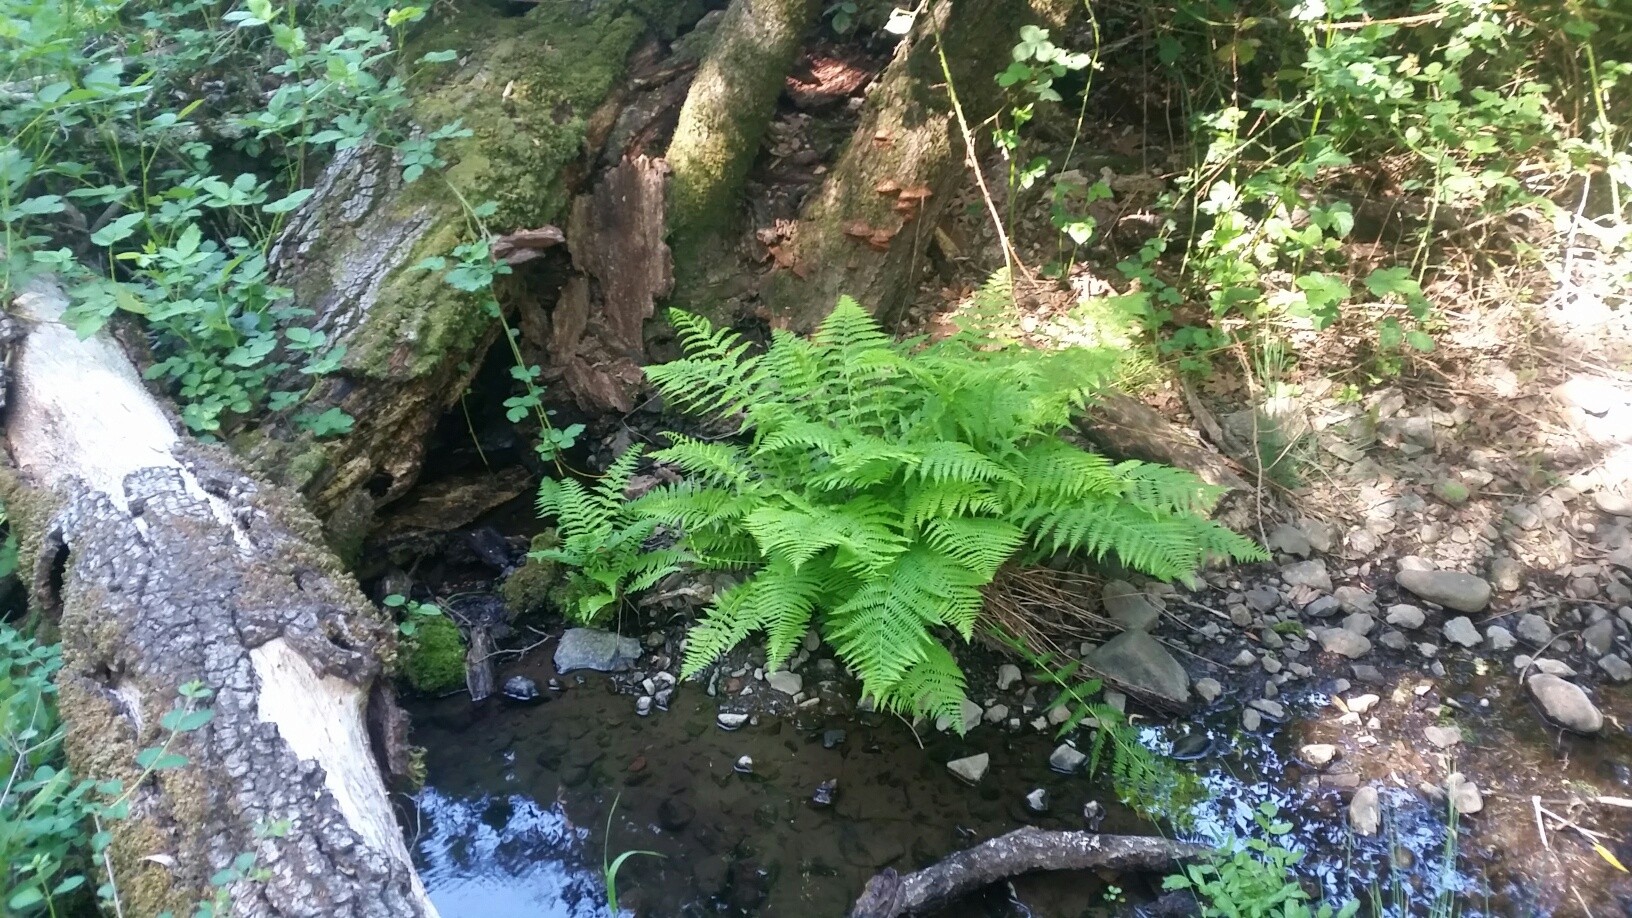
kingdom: Plantae
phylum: Tracheophyta
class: Polypodiopsida
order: Polypodiales
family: Athyriaceae
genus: Athyrium
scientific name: Athyrium filix-femina
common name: Lady fern
